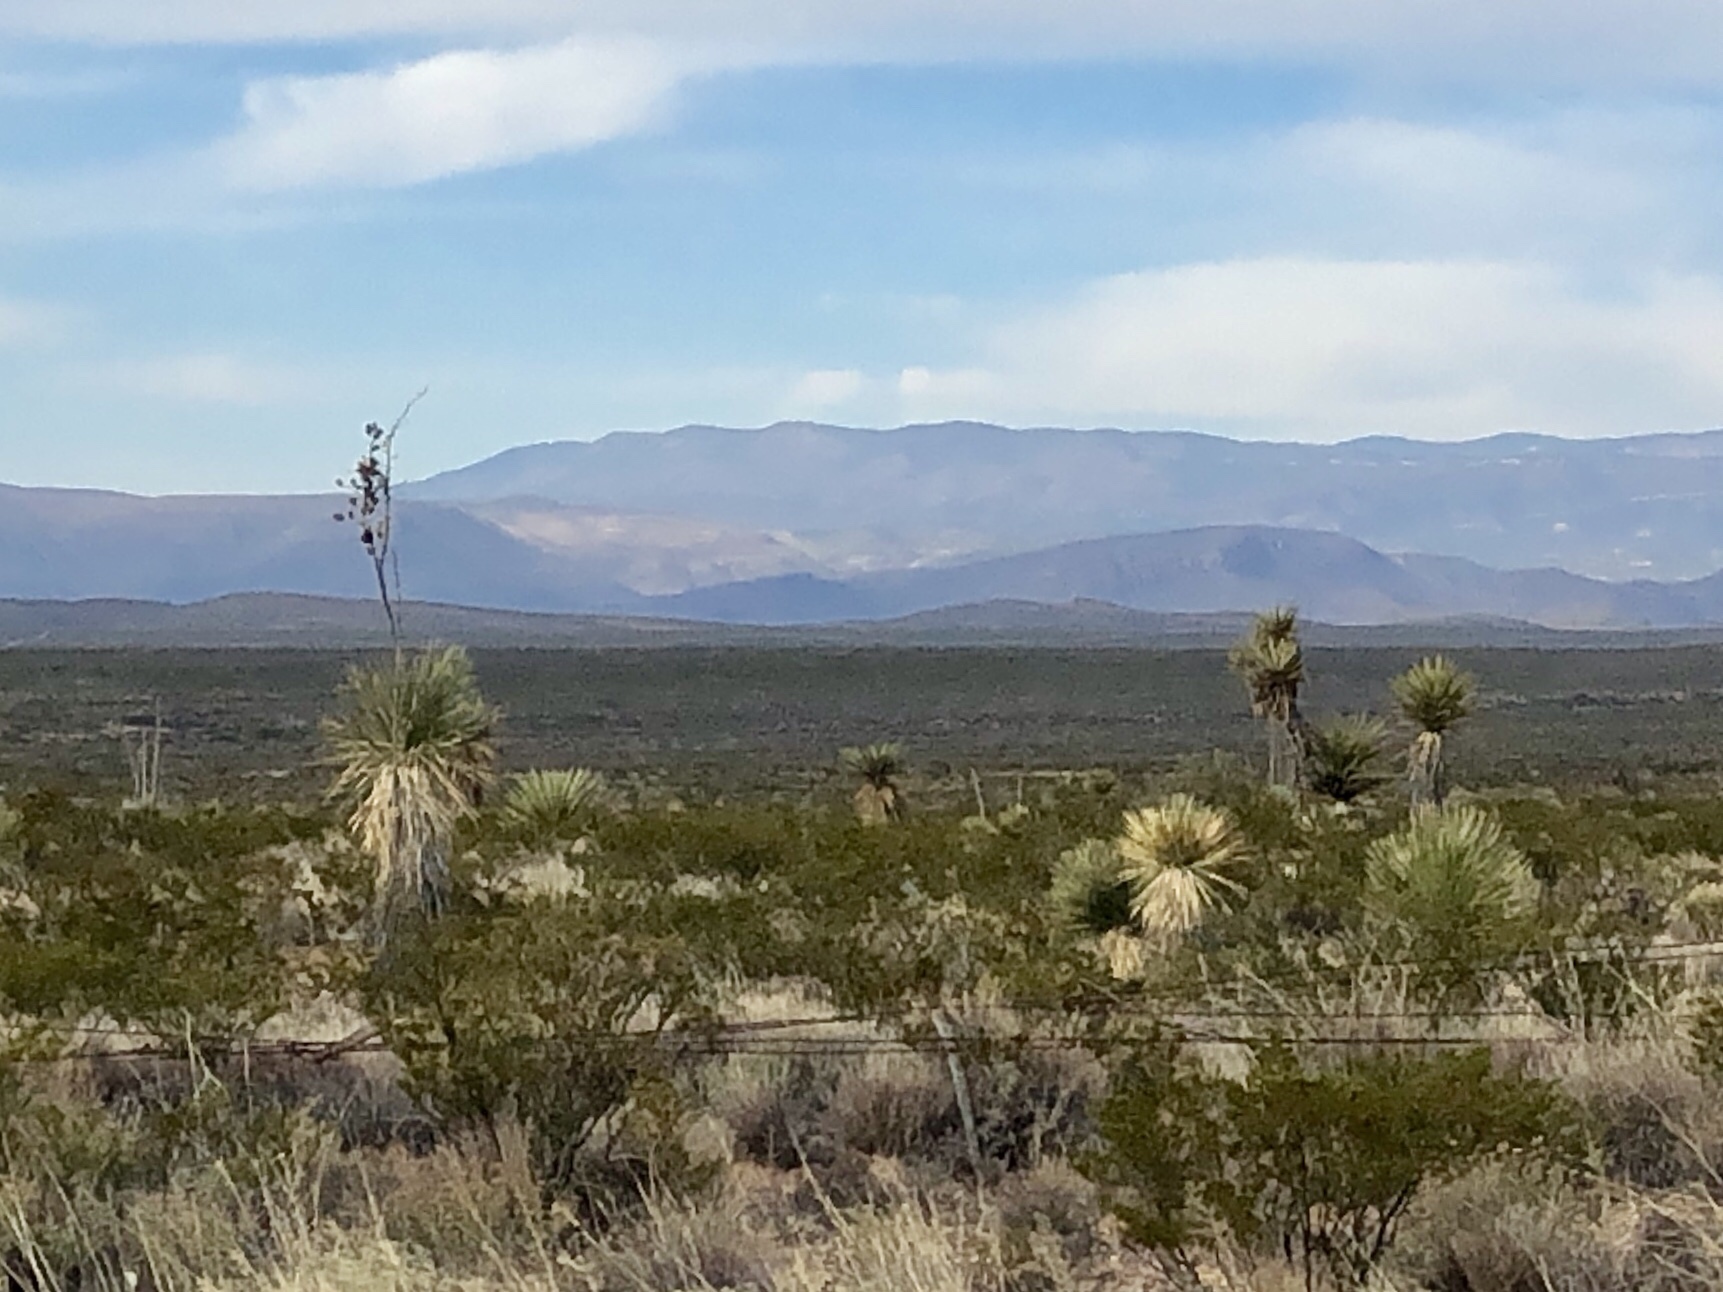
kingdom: Plantae
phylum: Tracheophyta
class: Liliopsida
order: Asparagales
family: Asparagaceae
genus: Yucca
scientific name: Yucca elata
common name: Palmella
